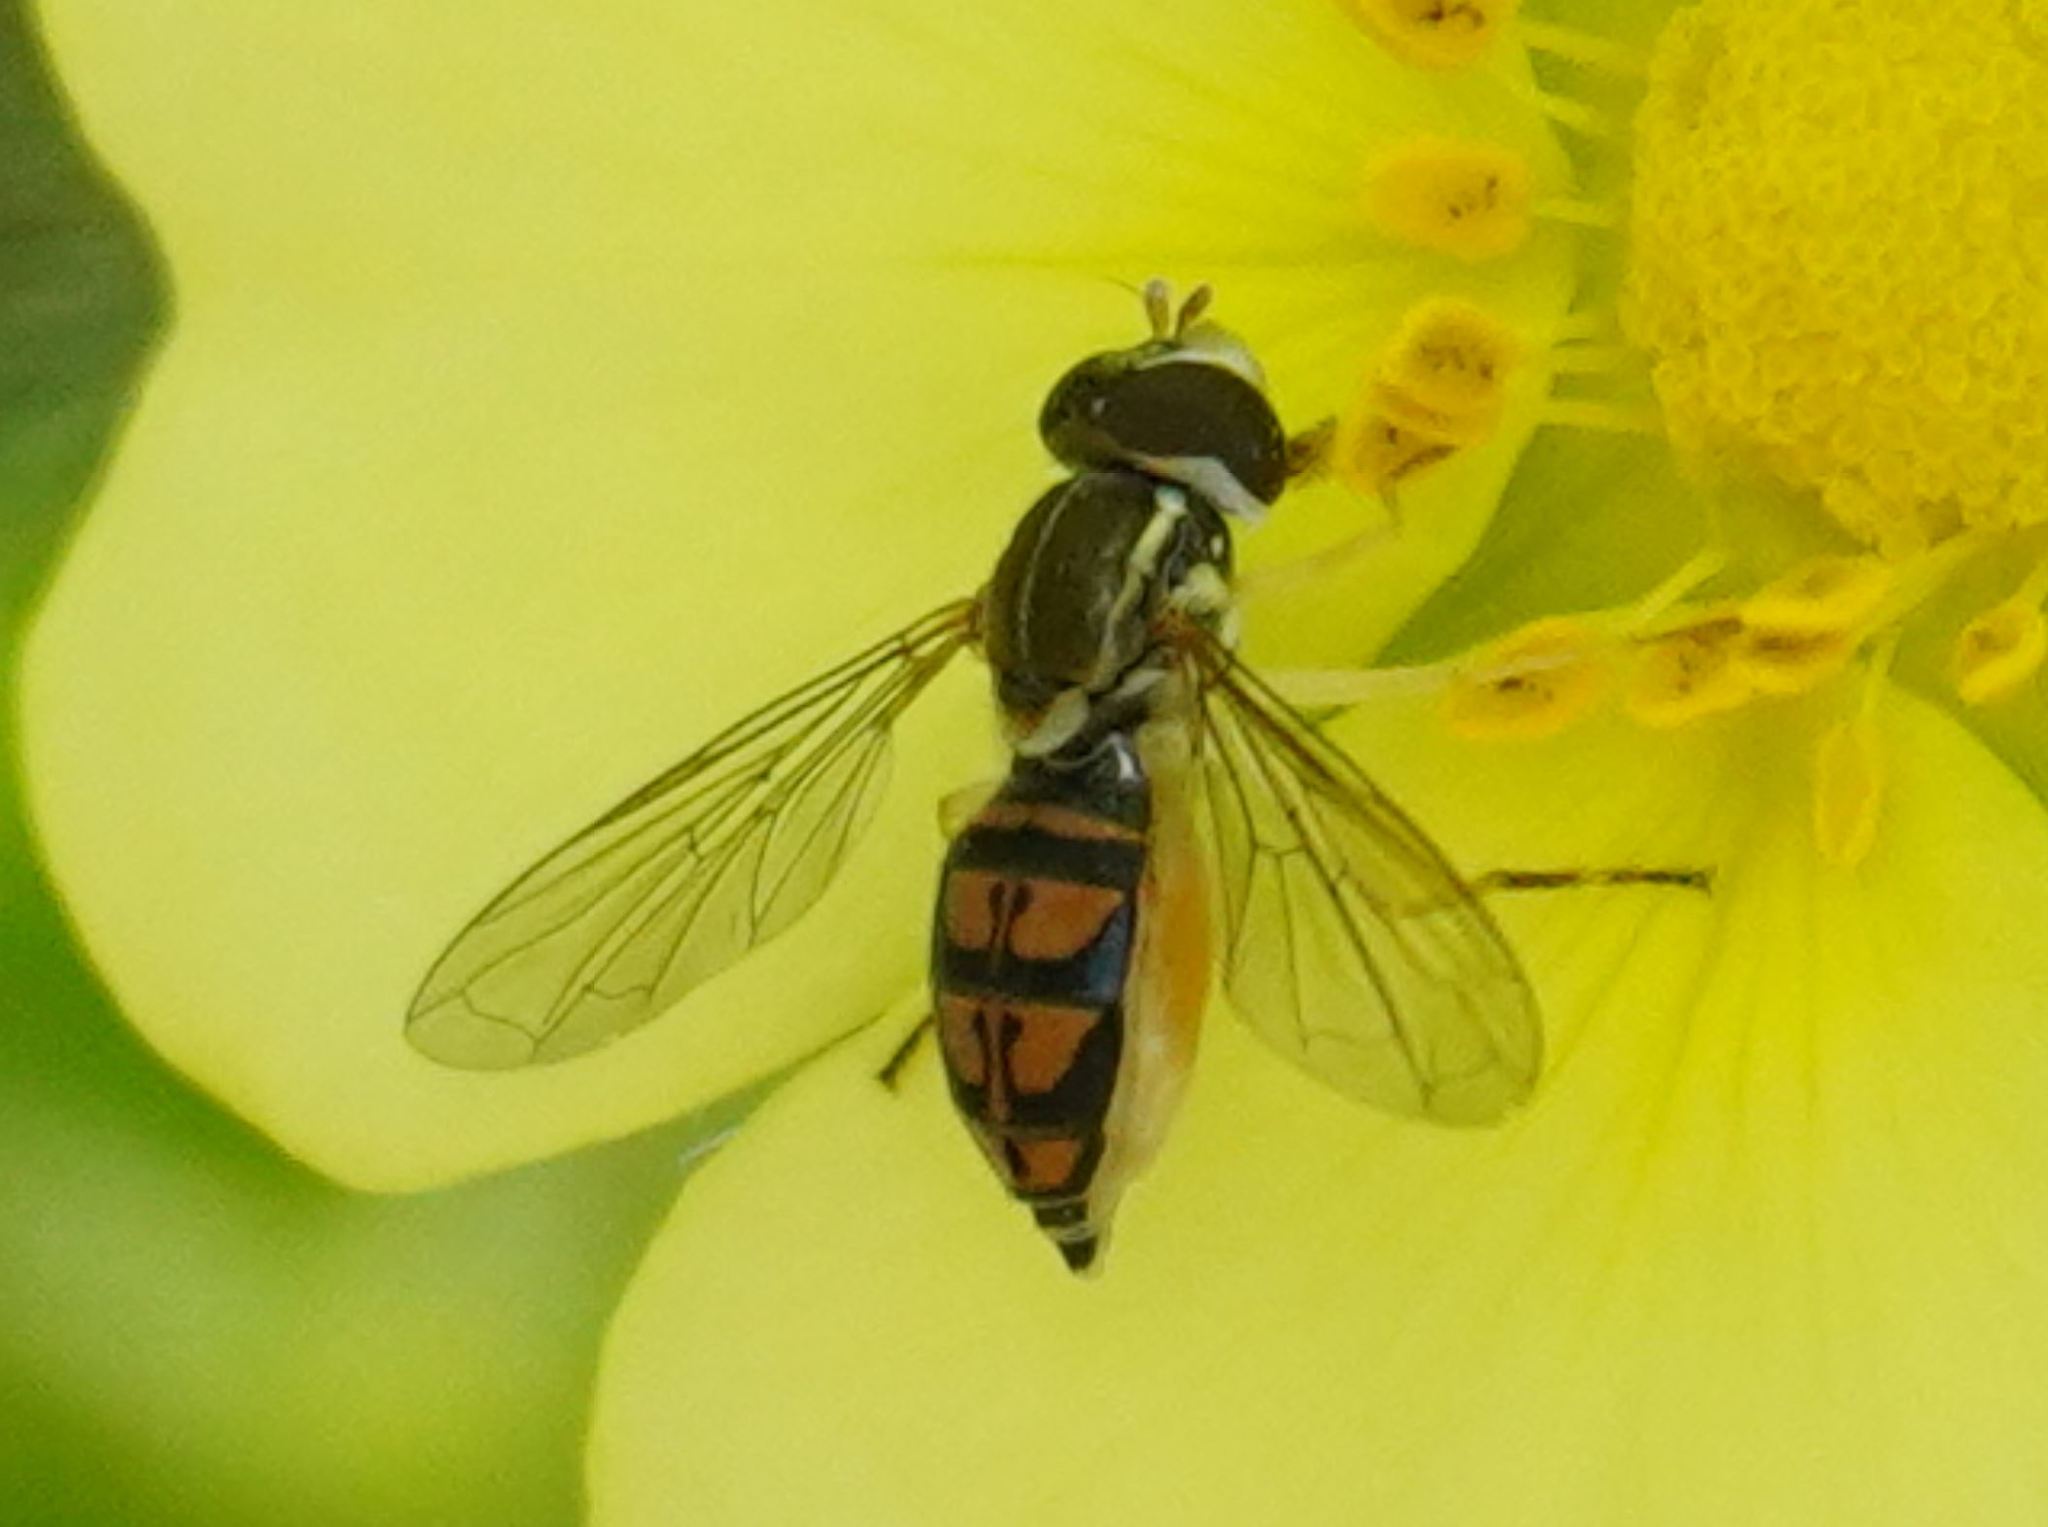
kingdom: Animalia
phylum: Arthropoda
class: Insecta
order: Diptera
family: Syrphidae
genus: Toxomerus
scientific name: Toxomerus marginatus
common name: Syrphid fly
